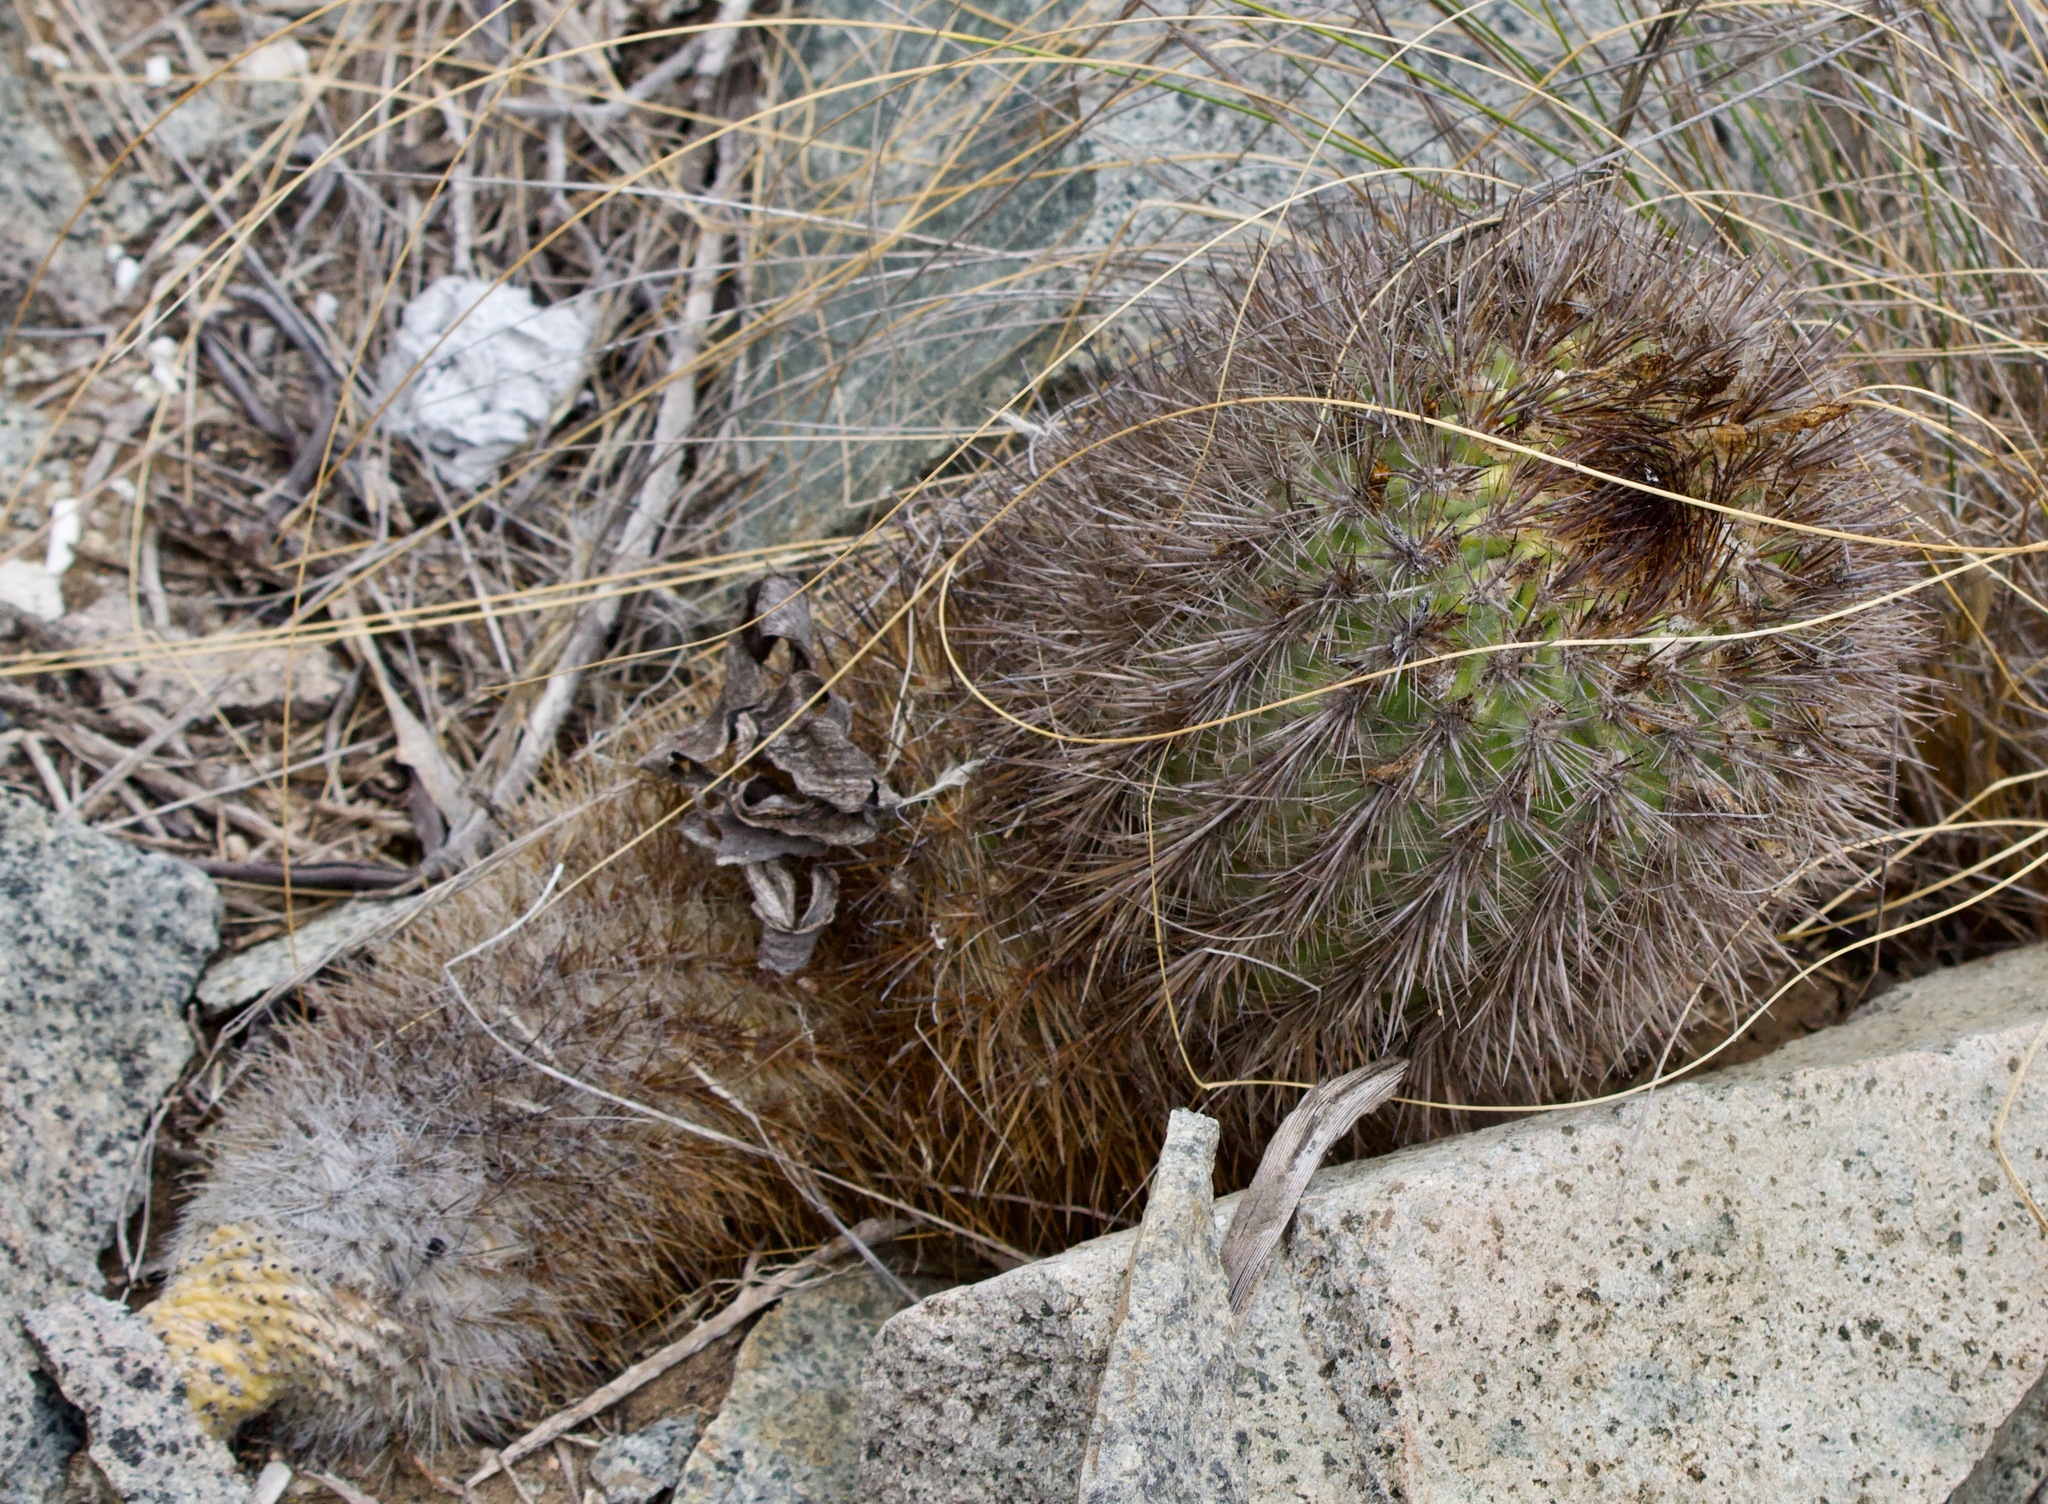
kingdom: Plantae
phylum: Tracheophyta
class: Magnoliopsida
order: Caryophyllales
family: Cactaceae
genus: Eriosyce
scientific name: Eriosyce subgibbosa
